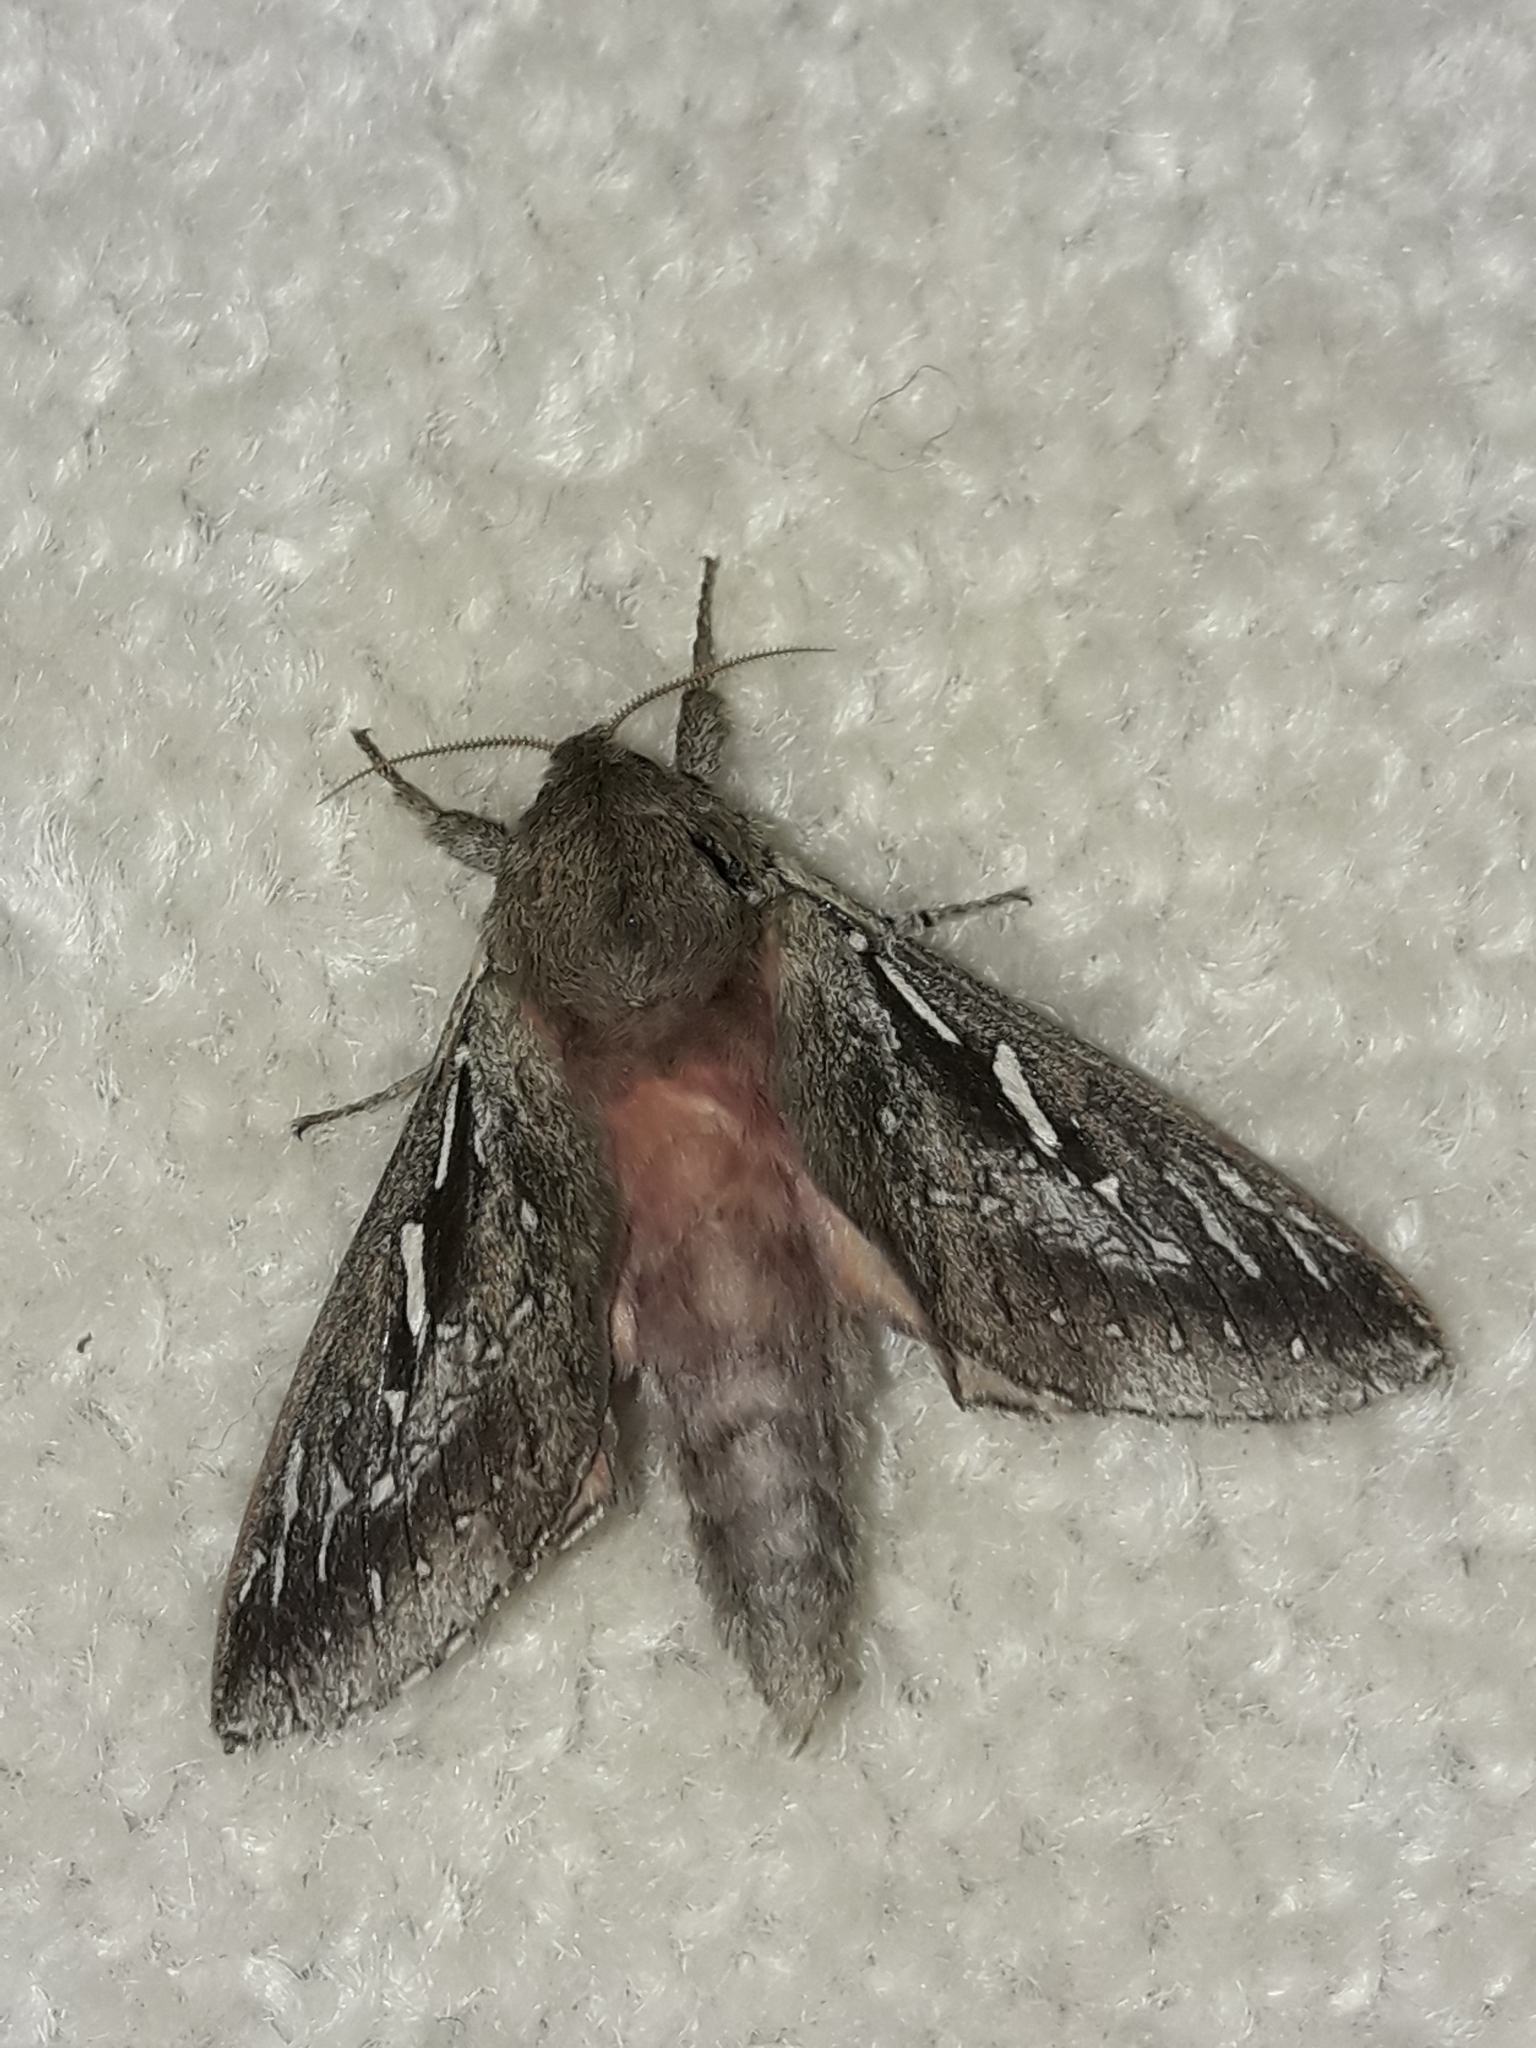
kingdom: Animalia
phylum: Arthropoda
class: Insecta
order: Lepidoptera
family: Hepialidae
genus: Wiseana
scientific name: Wiseana signata
